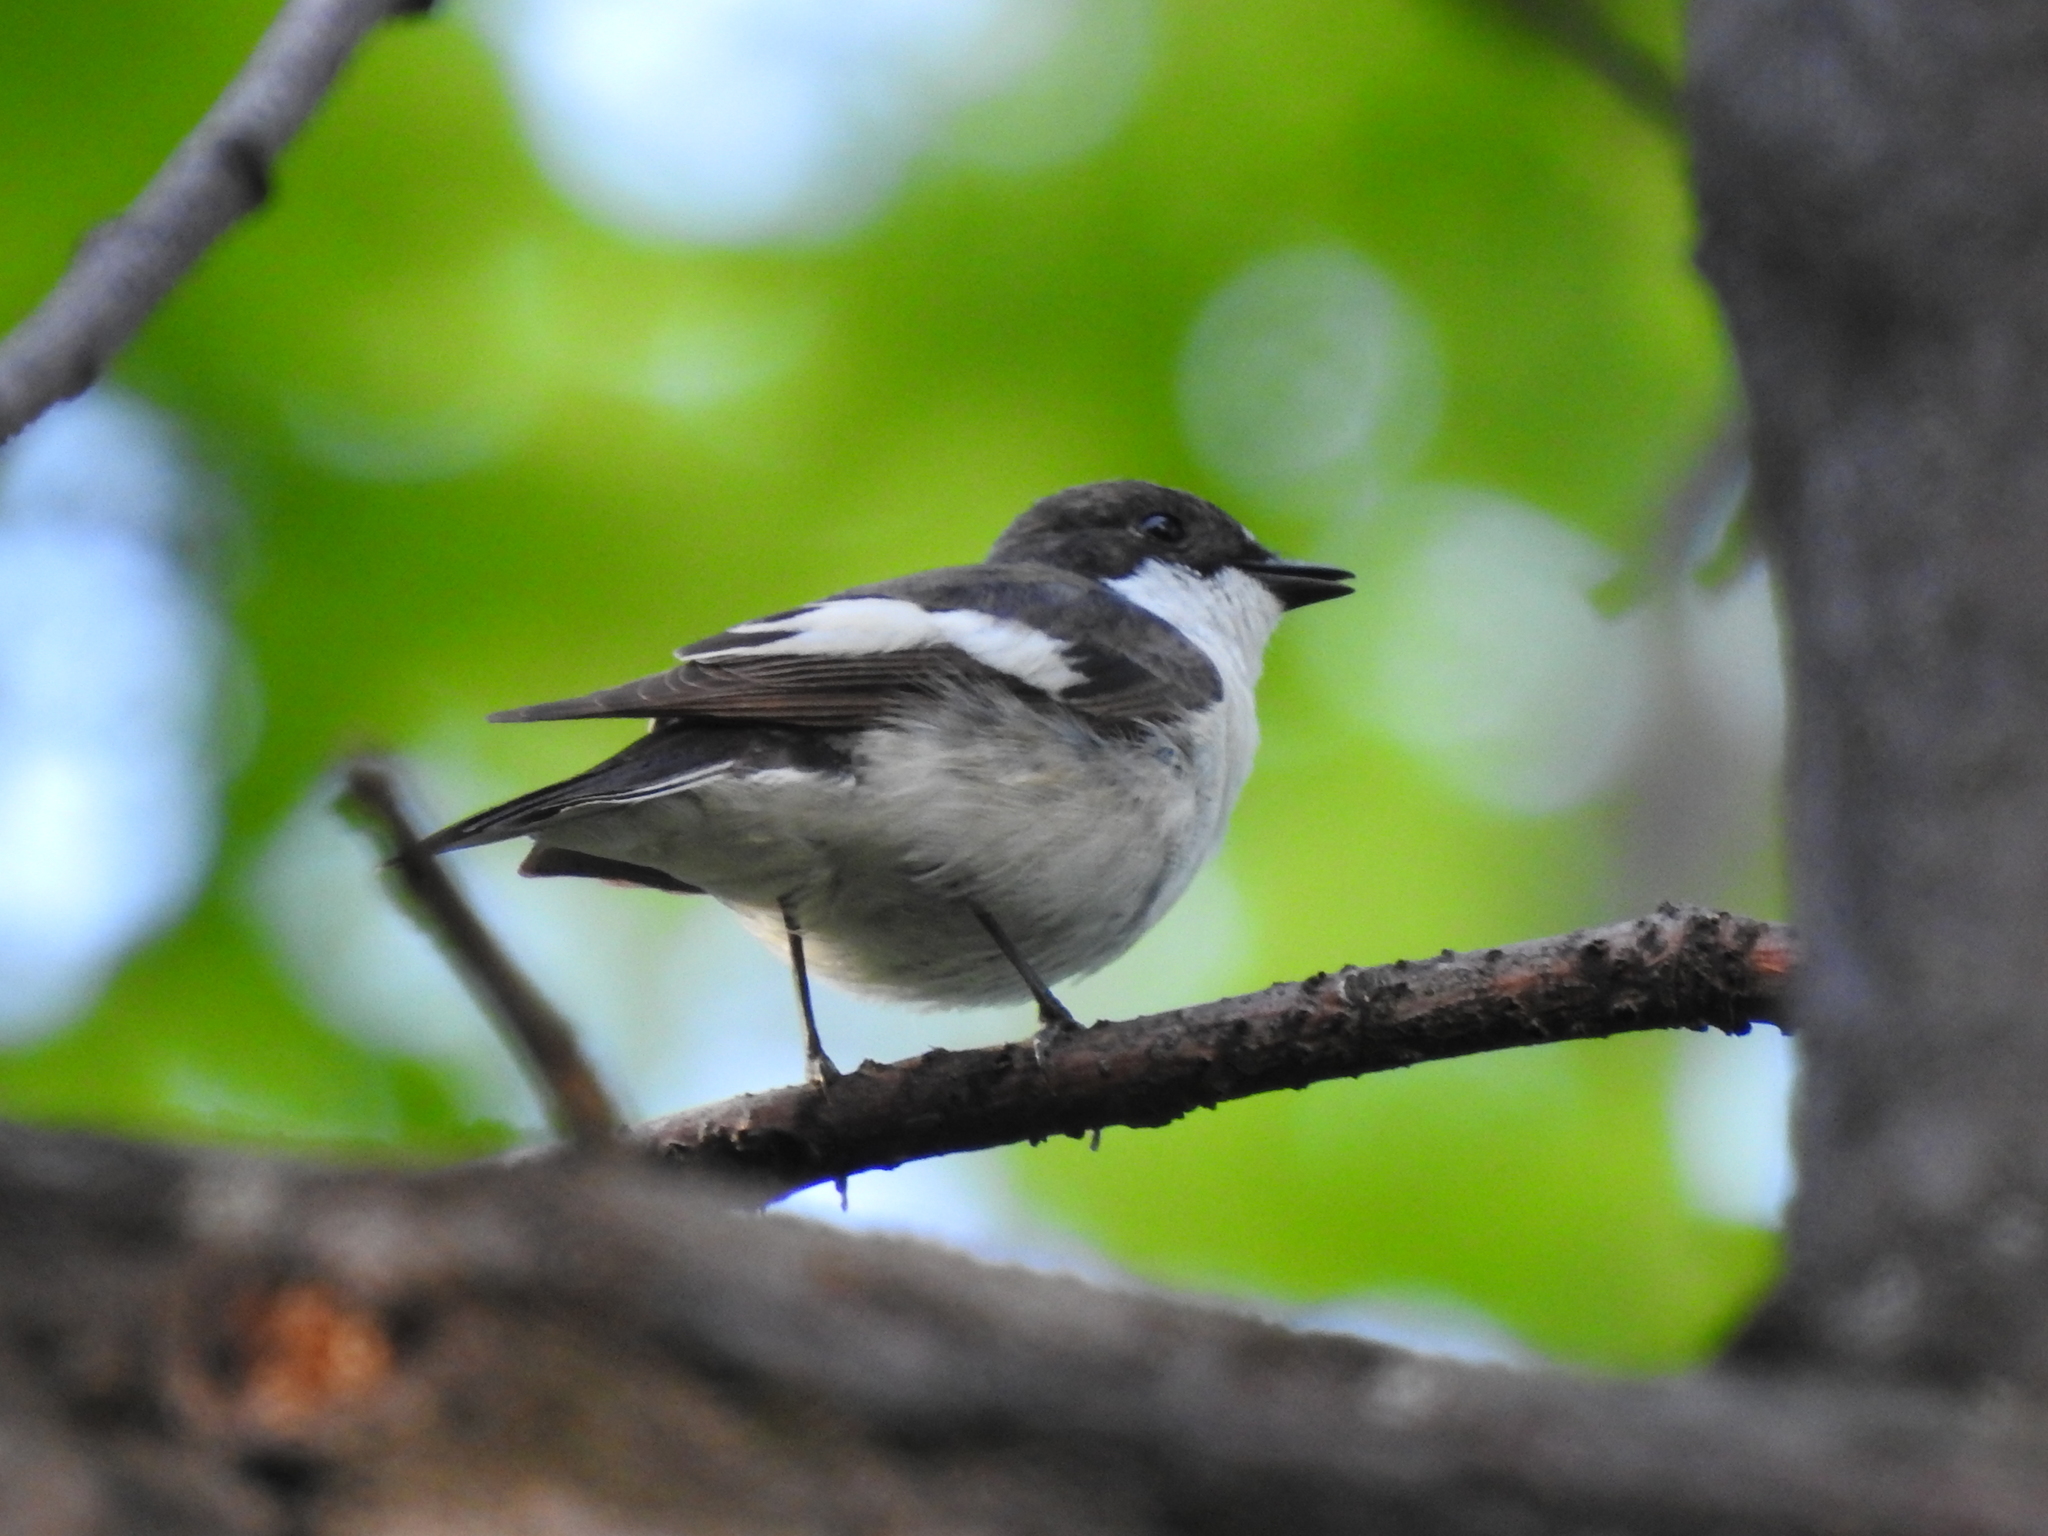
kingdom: Animalia
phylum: Chordata
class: Aves
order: Passeriformes
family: Muscicapidae
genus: Ficedula
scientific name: Ficedula hypoleuca
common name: European pied flycatcher
